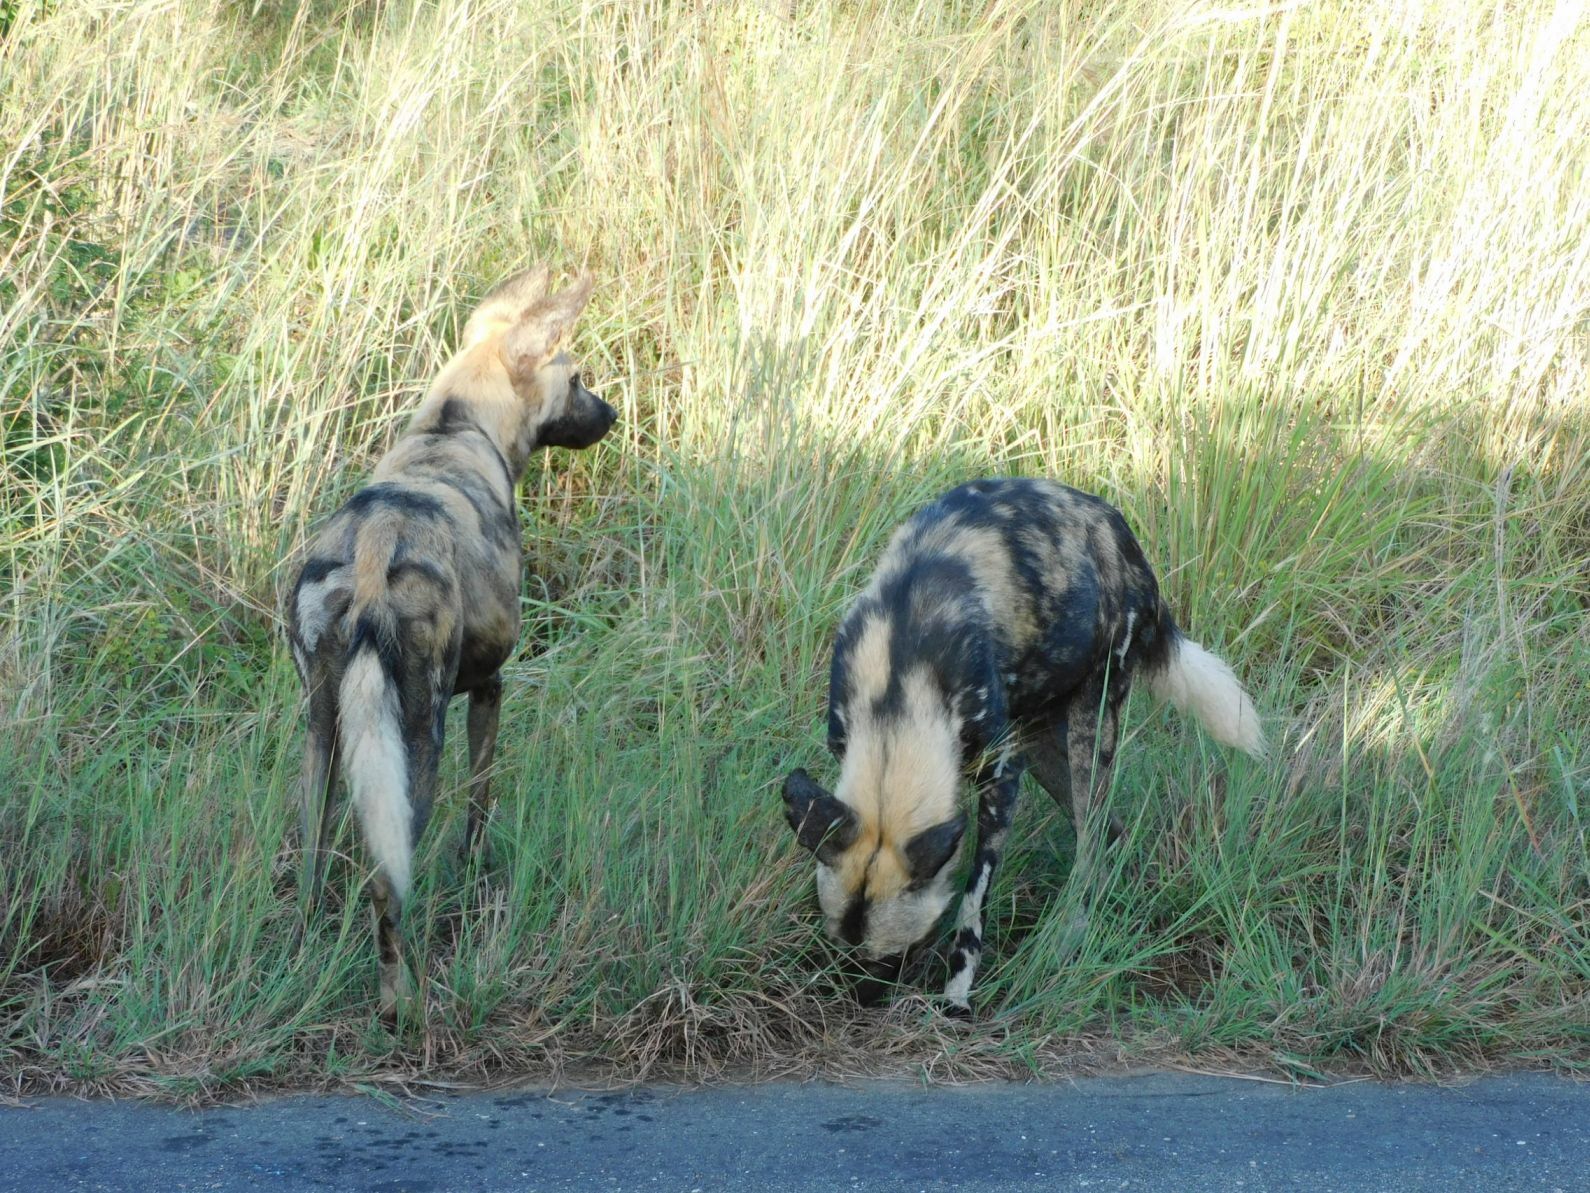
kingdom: Animalia
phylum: Chordata
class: Mammalia
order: Carnivora
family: Canidae
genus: Lycaon
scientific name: Lycaon pictus
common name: African wild dog
